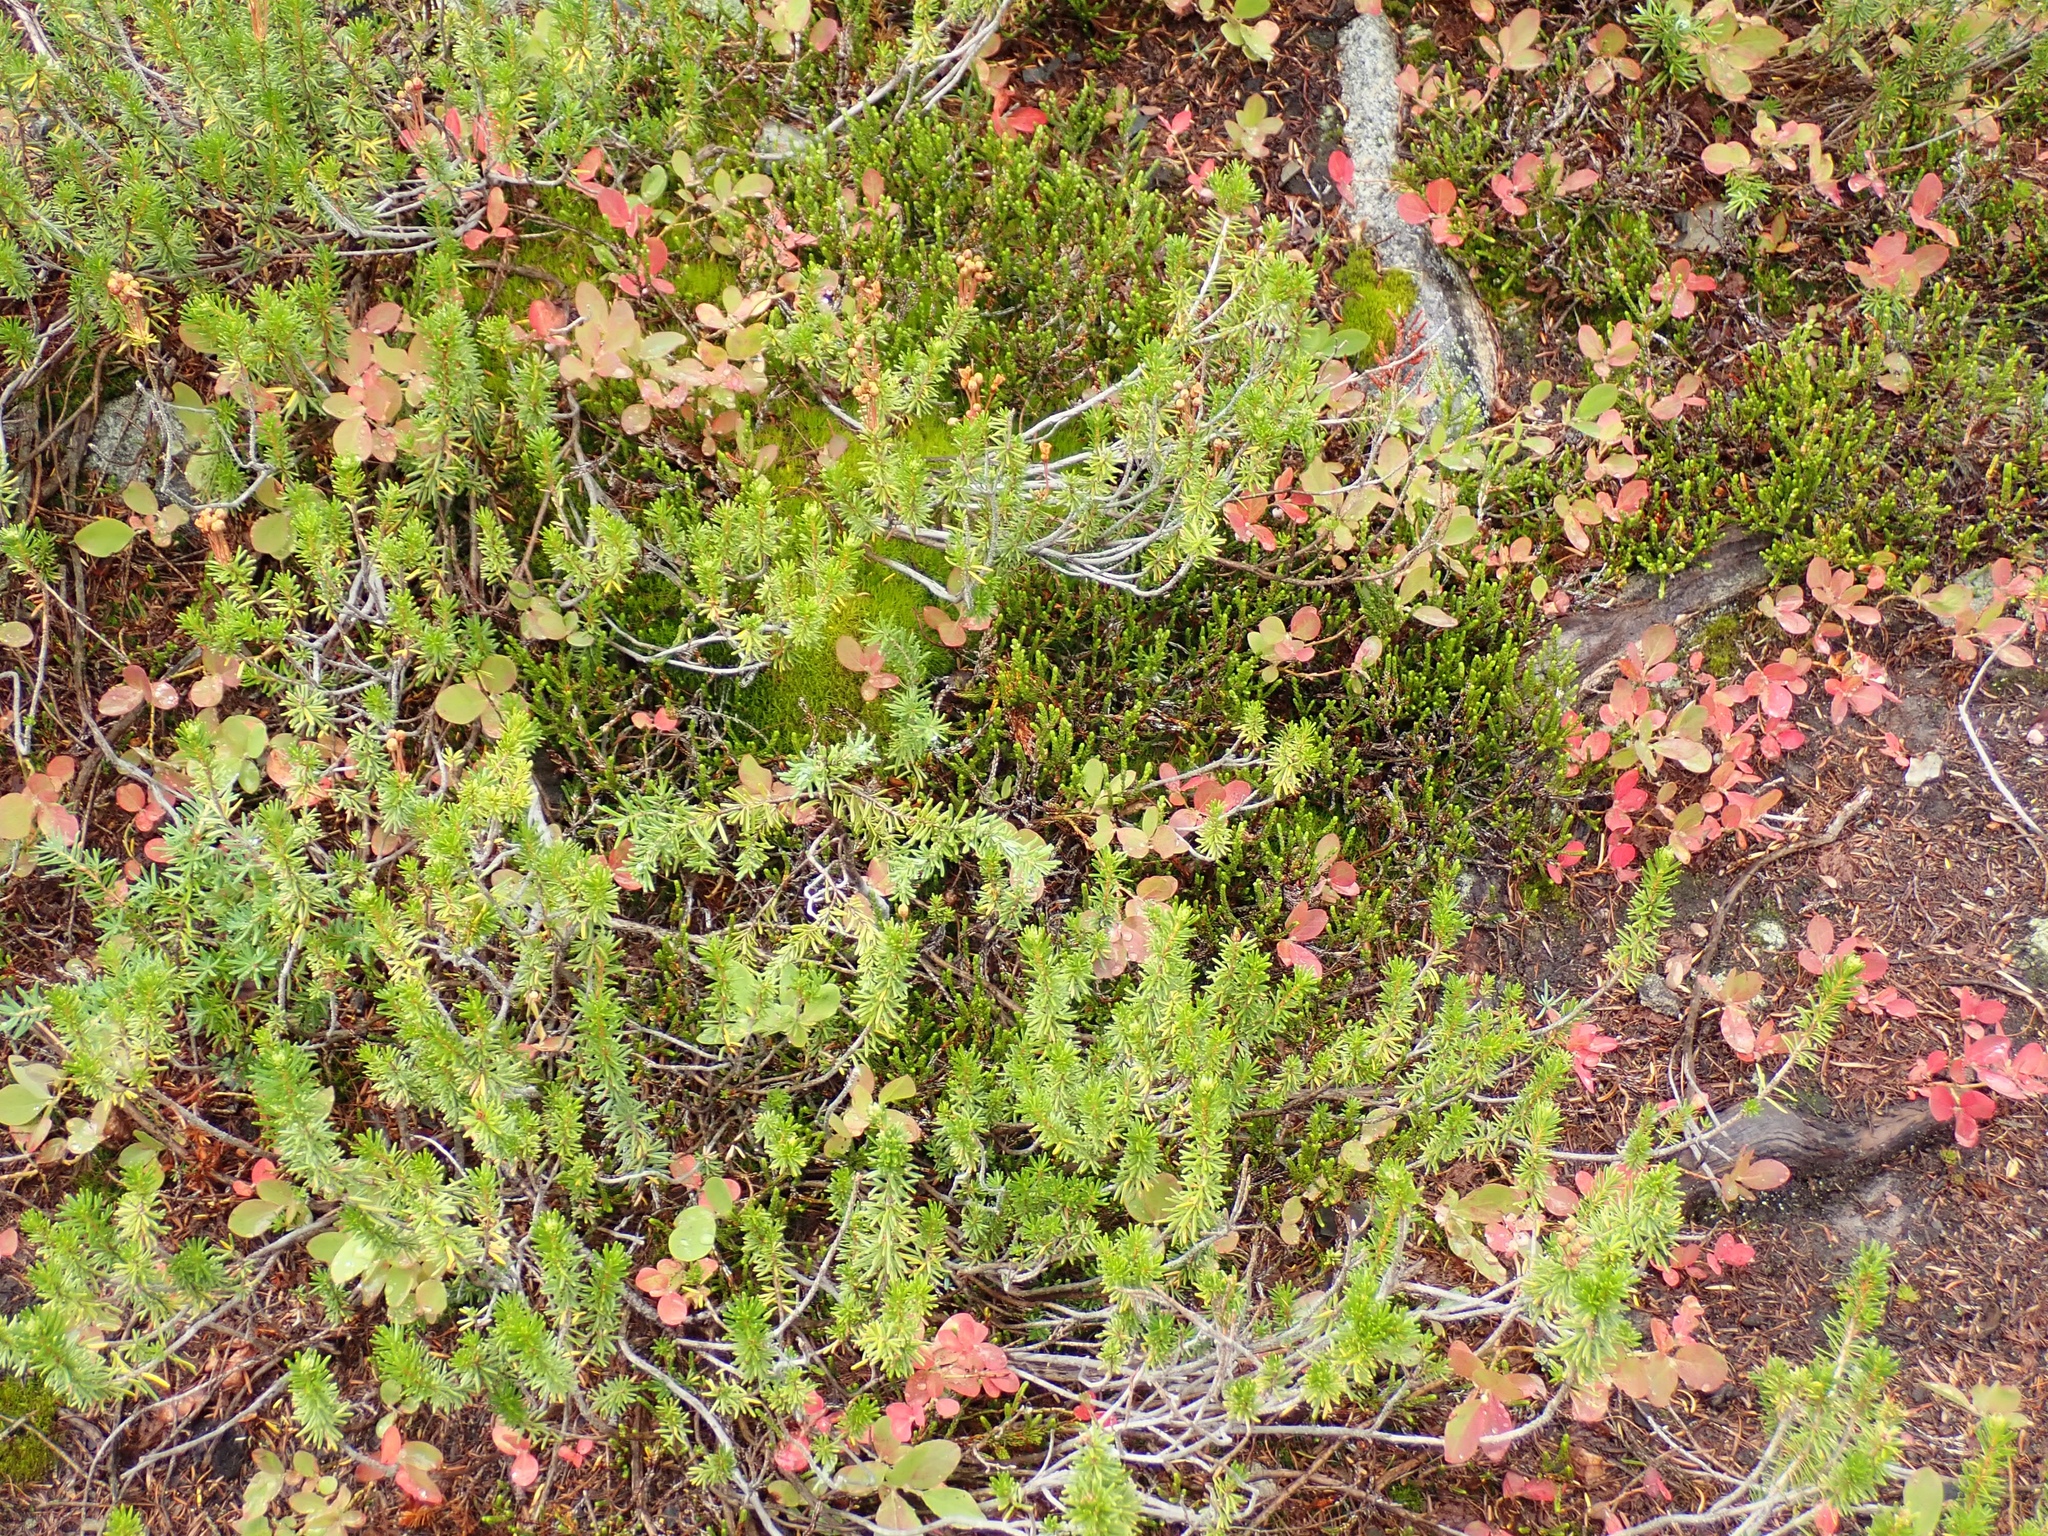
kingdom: Plantae
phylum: Tracheophyta
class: Magnoliopsida
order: Ericales
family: Ericaceae
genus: Cassiope
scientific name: Cassiope mertensiana
